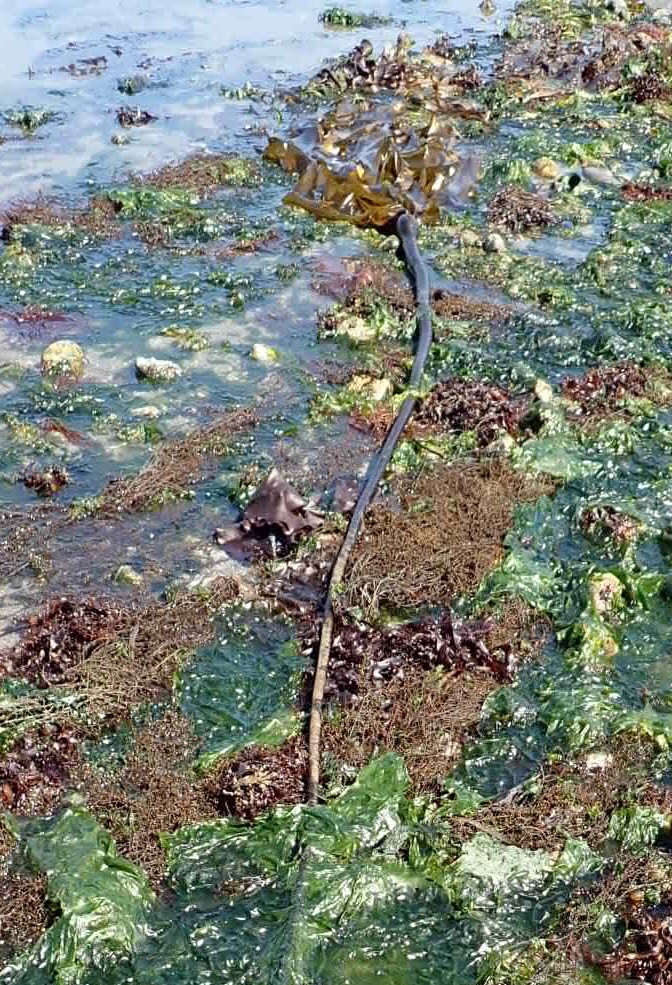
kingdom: Chromista
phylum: Ochrophyta
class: Phaeophyceae
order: Laminariales
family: Laminariaceae
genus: Nereocystis
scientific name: Nereocystis luetkeana
